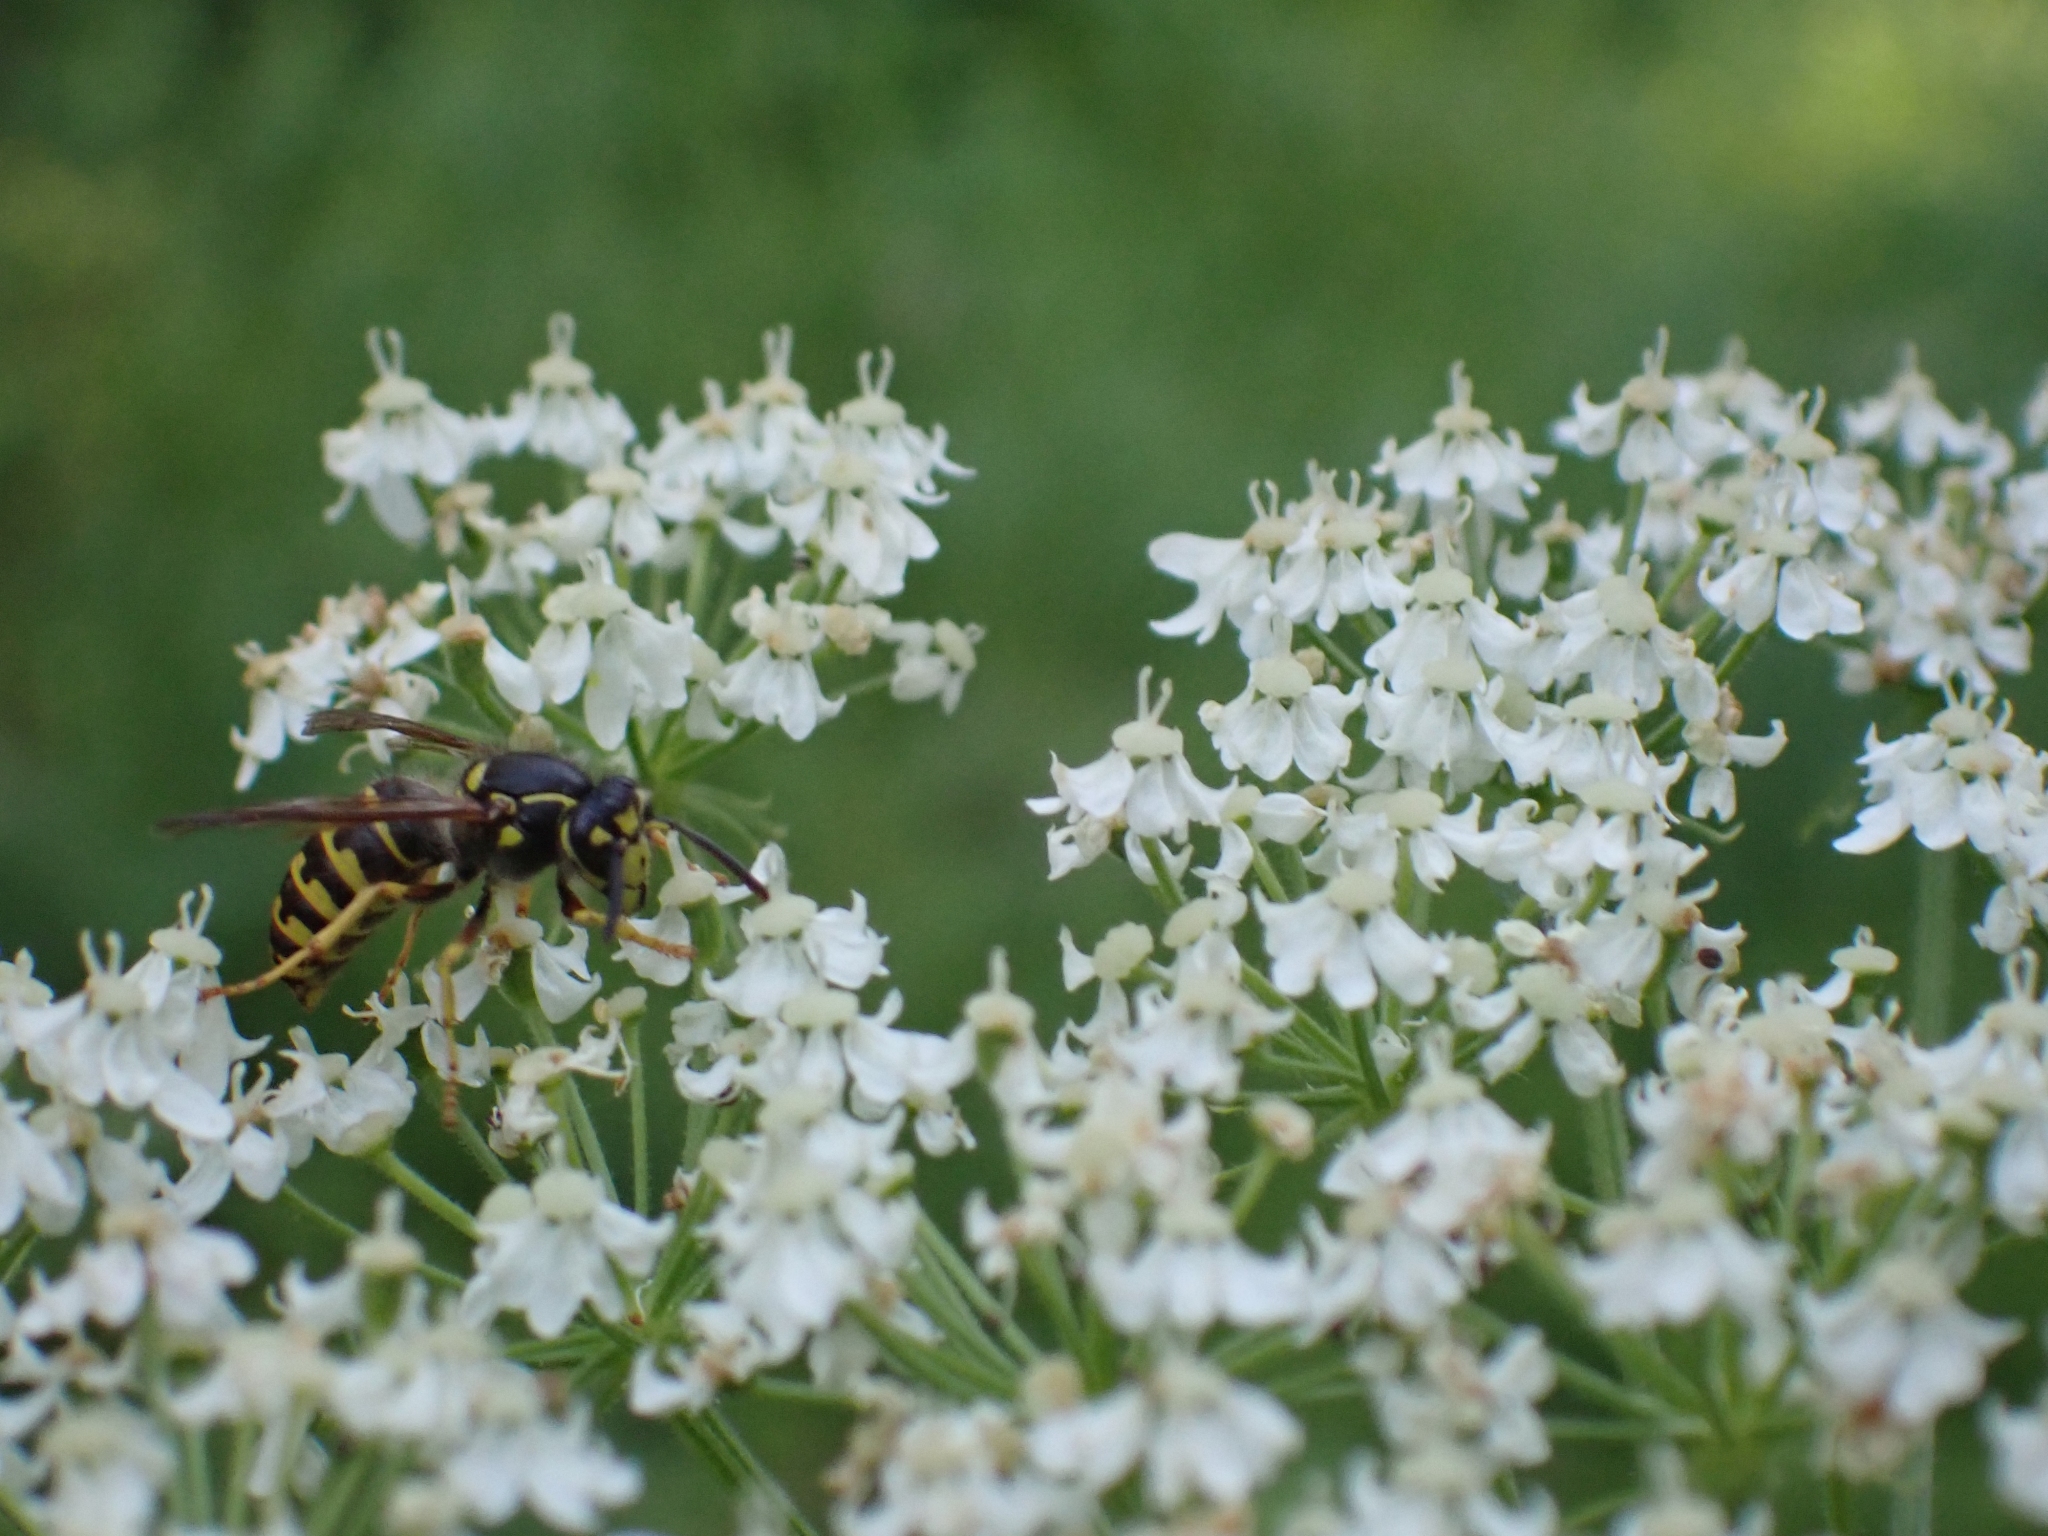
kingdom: Animalia
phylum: Arthropoda
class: Insecta
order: Hymenoptera
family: Vespidae
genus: Dolichovespula
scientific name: Dolichovespula arenaria
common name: Aerial yellowjacket
